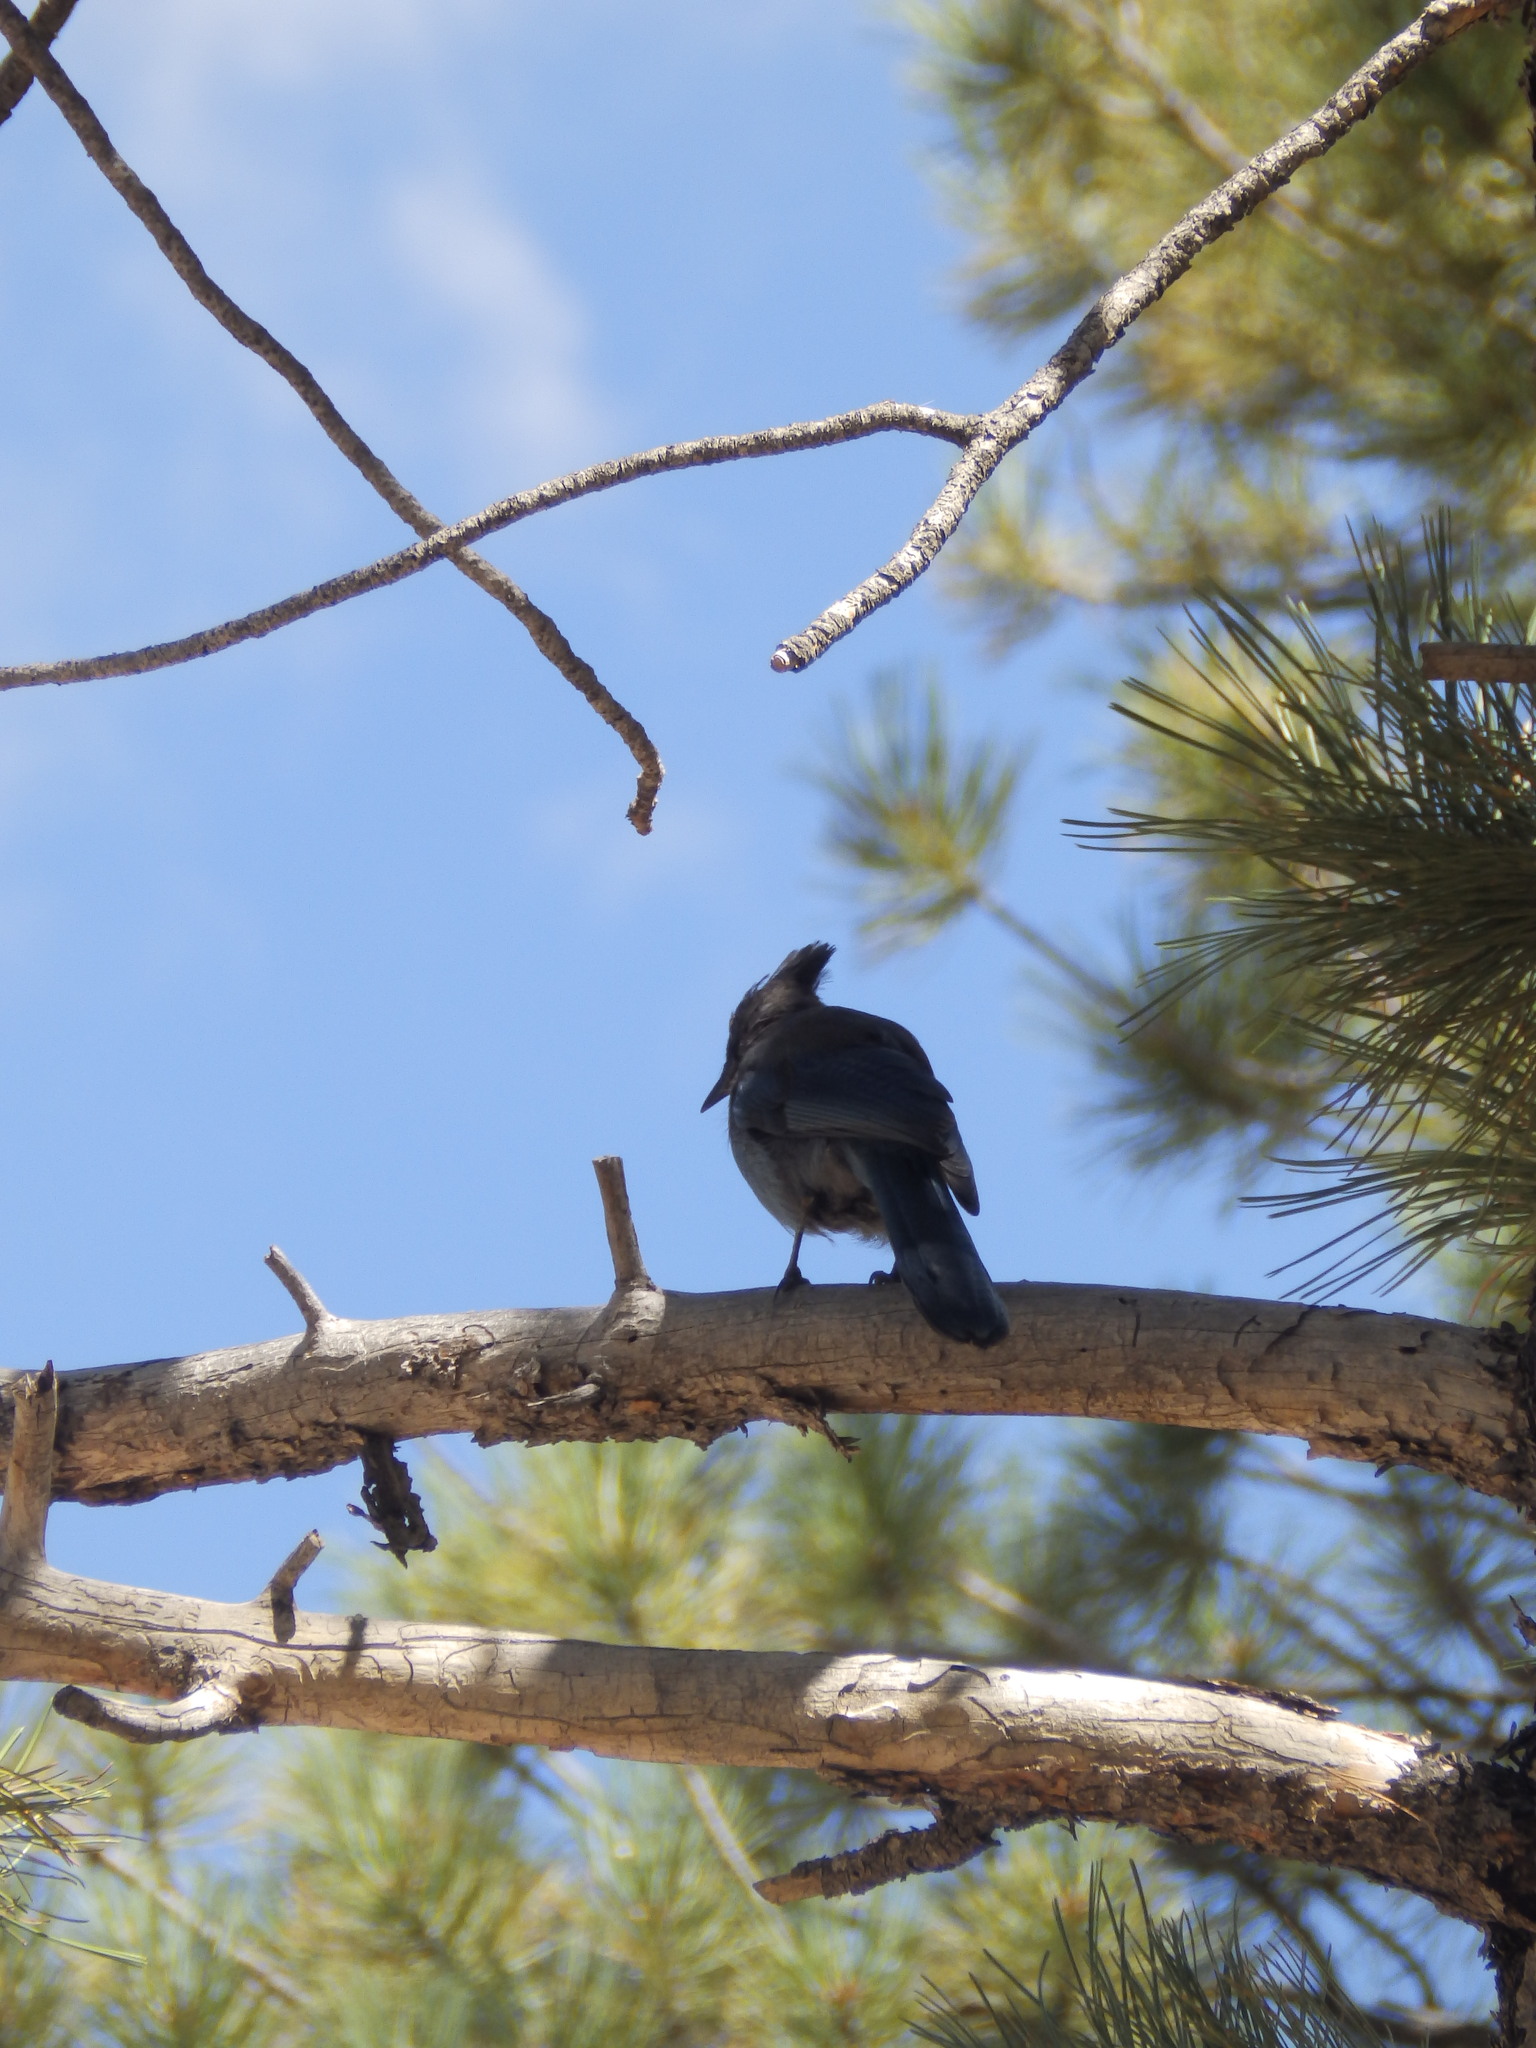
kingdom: Animalia
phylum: Chordata
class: Aves
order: Passeriformes
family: Corvidae
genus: Cyanocitta
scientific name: Cyanocitta stelleri
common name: Steller's jay
